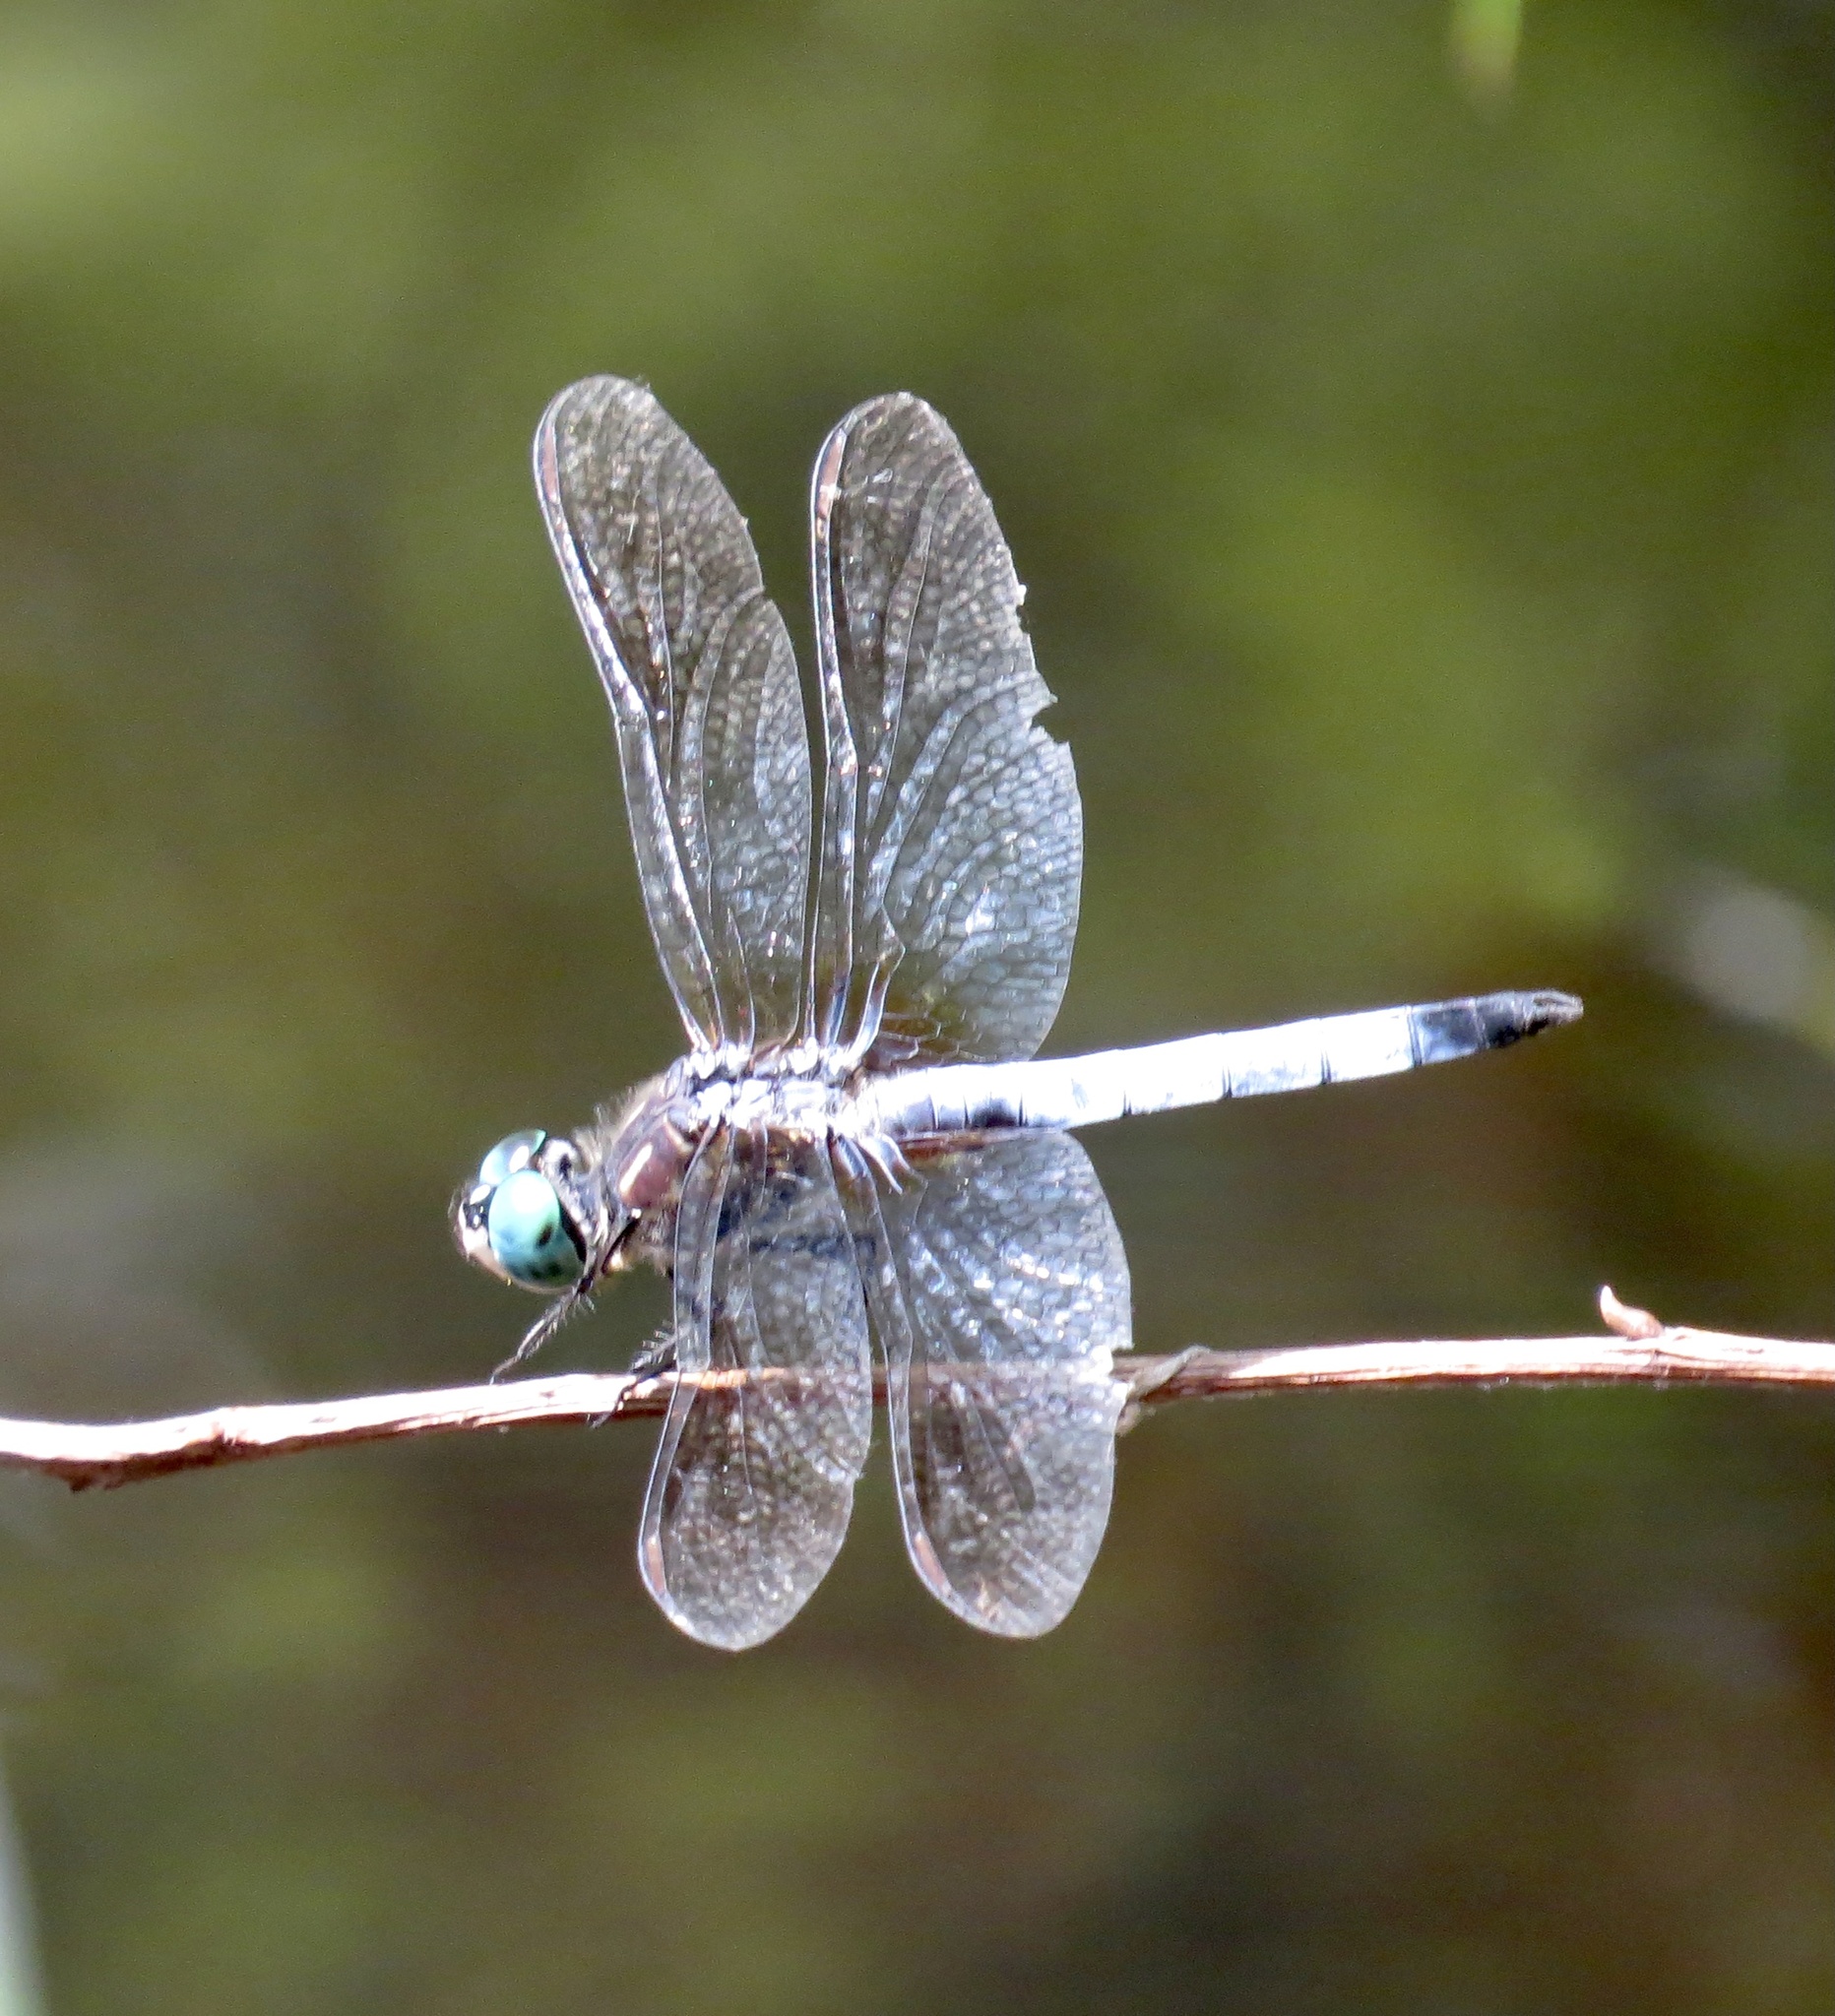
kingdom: Animalia
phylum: Arthropoda
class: Insecta
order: Odonata
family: Libellulidae
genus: Pachydiplax
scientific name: Pachydiplax longipennis
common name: Blue dasher
